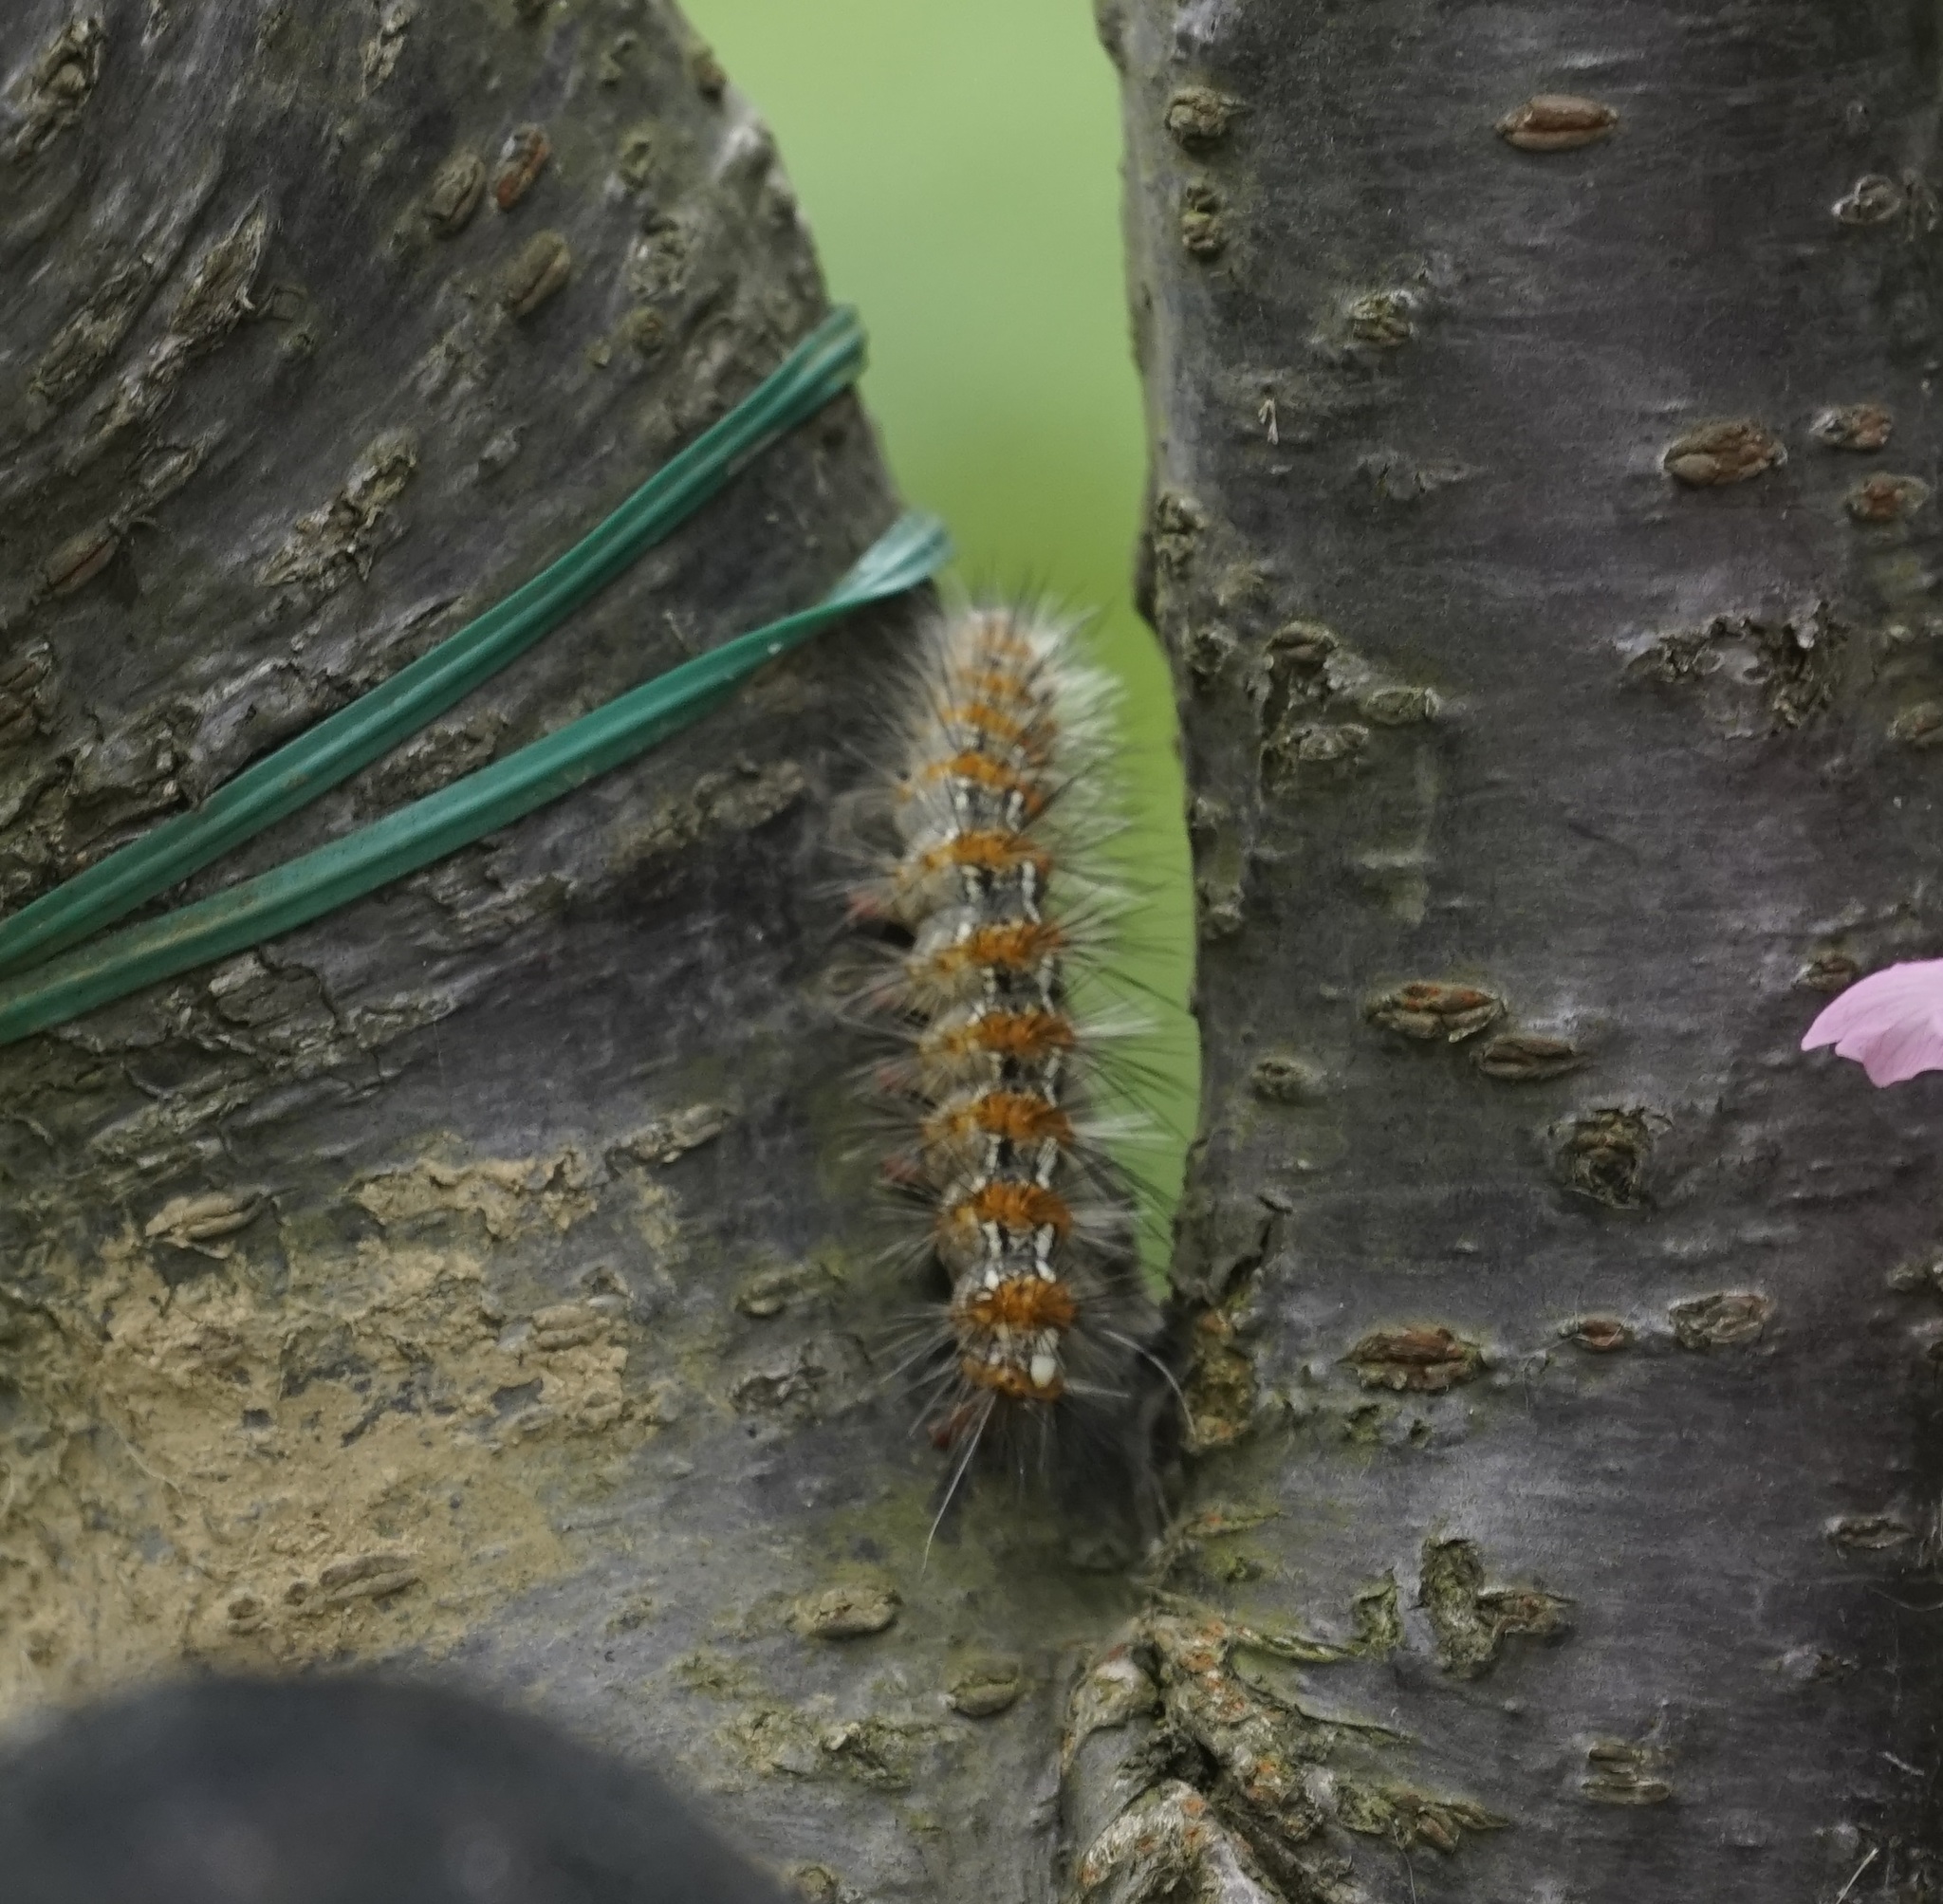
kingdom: Animalia
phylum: Arthropoda
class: Insecta
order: Lepidoptera
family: Erebidae
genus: Lemyra
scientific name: Lemyra imparilis
